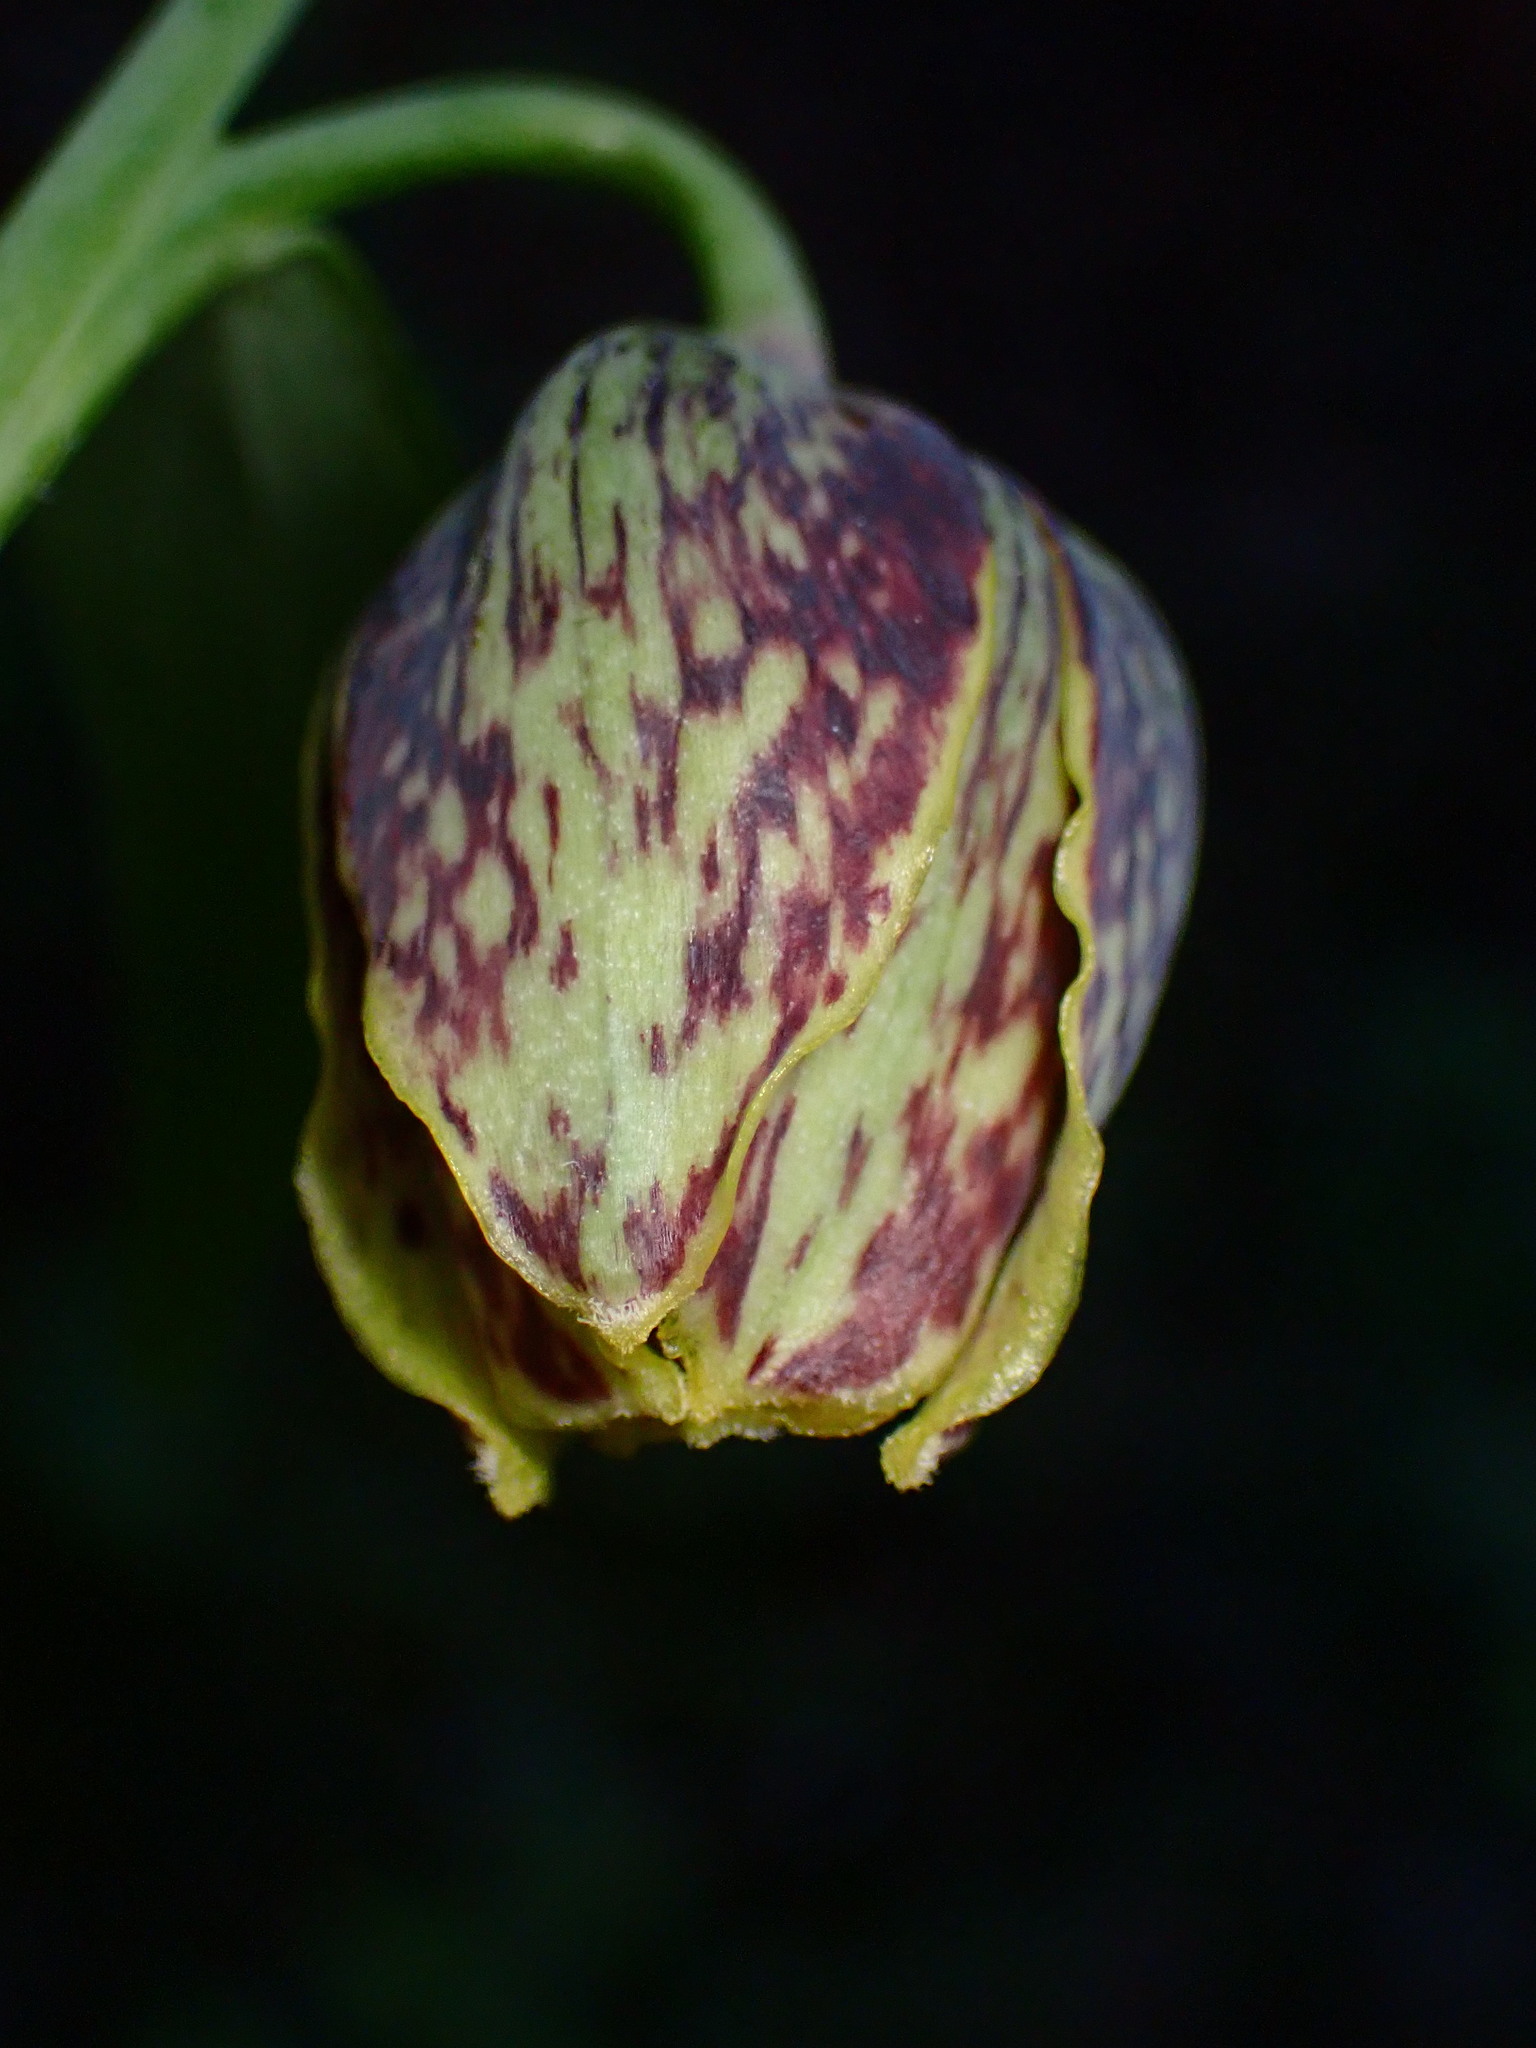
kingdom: Plantae
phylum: Tracheophyta
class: Liliopsida
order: Liliales
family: Liliaceae
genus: Fritillaria
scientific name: Fritillaria affinis
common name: Ojai fritillary
